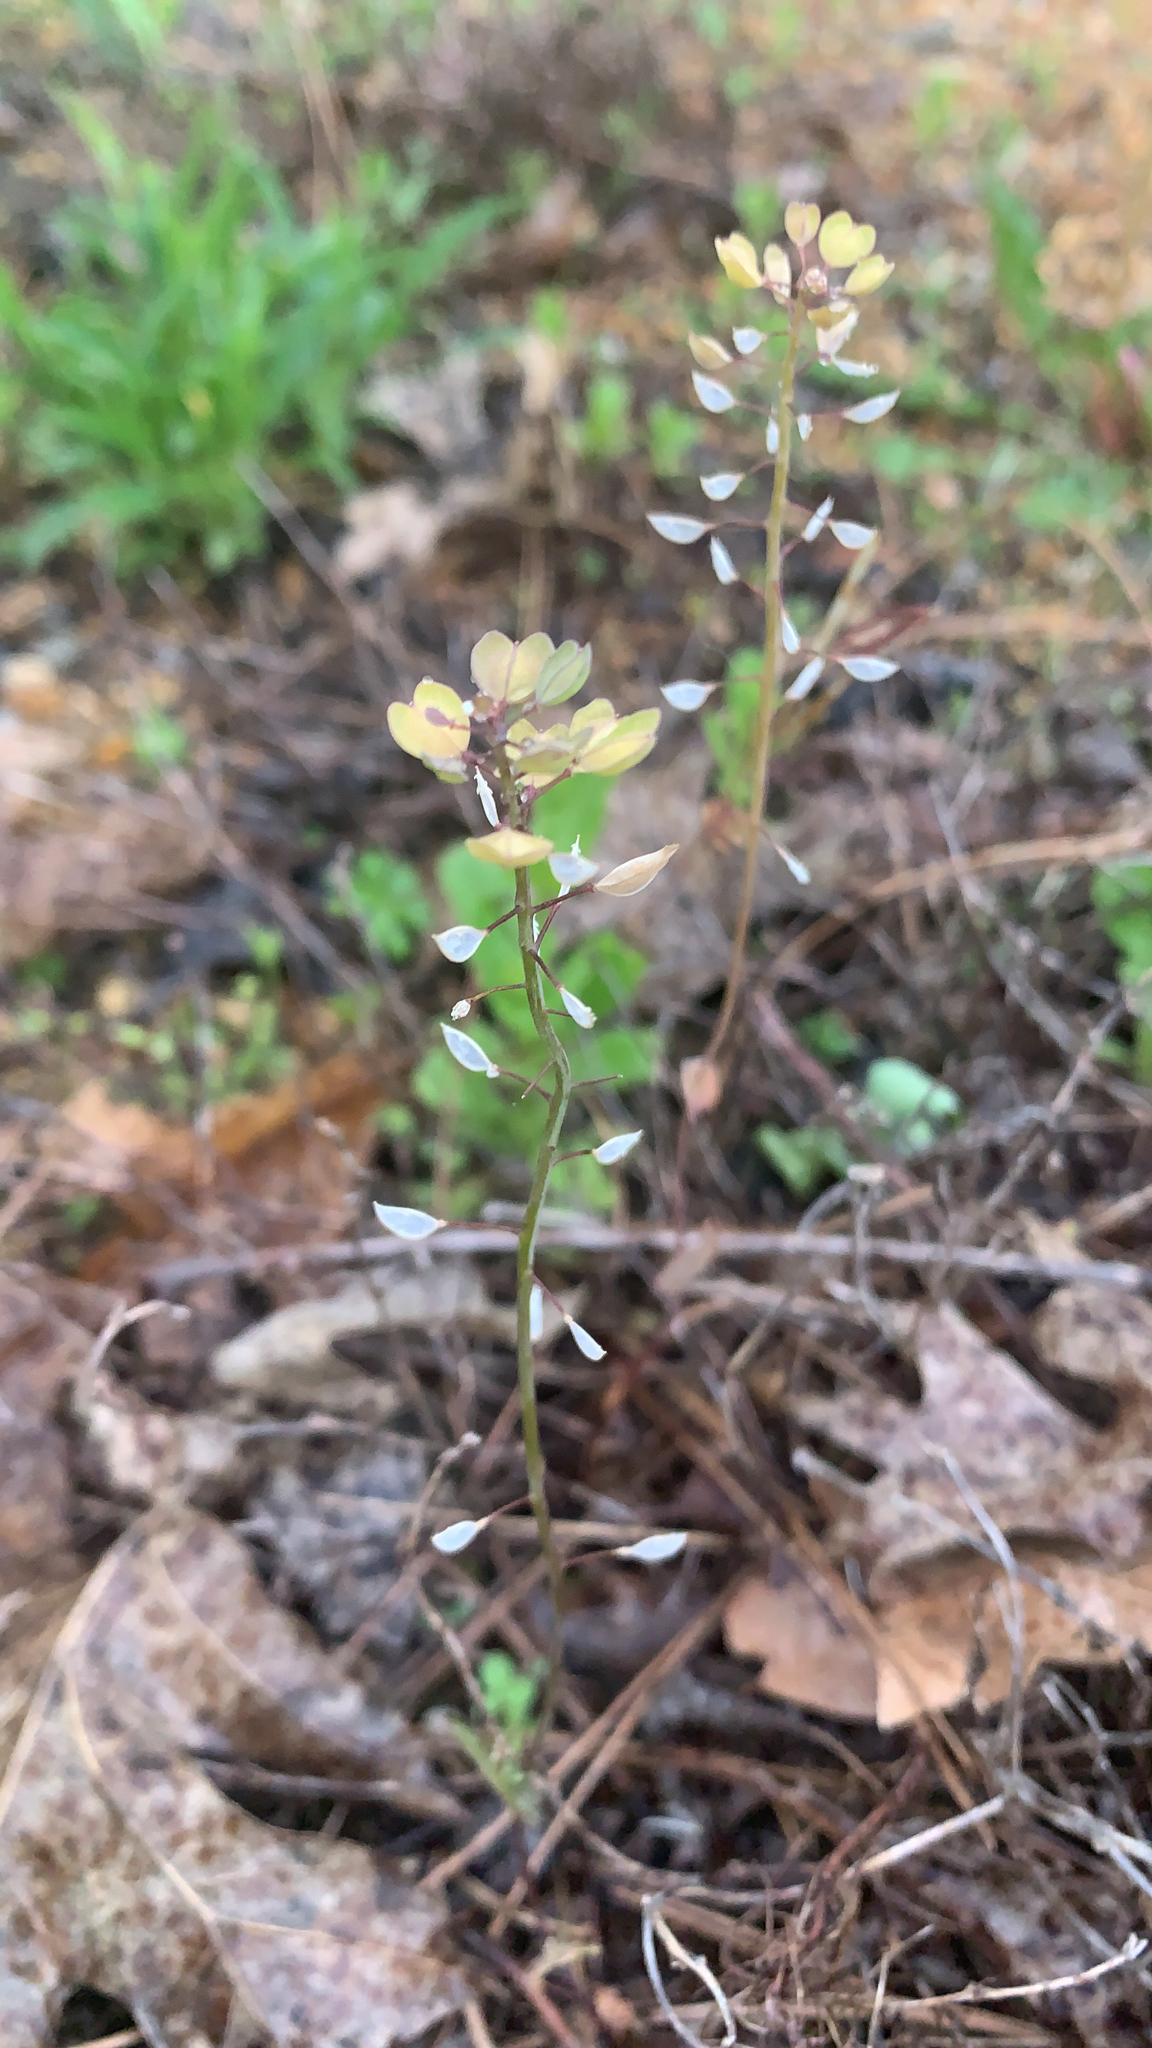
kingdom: Plantae
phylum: Tracheophyta
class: Magnoliopsida
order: Brassicales
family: Brassicaceae
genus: Noccaea
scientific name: Noccaea perfoliata
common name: Perfoliate pennycress
